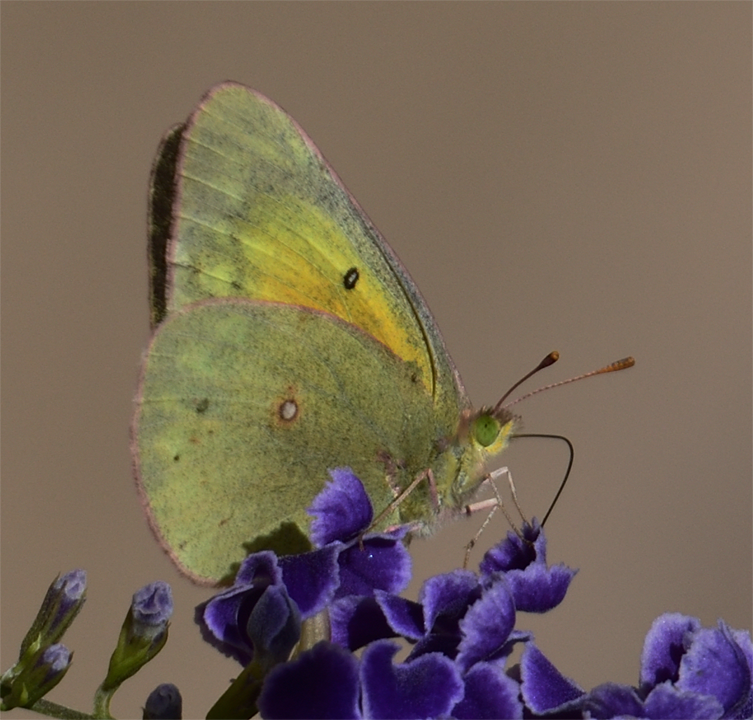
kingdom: Animalia
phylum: Arthropoda
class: Insecta
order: Lepidoptera
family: Pieridae
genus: Colias
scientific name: Colias eurytheme
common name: Alfalfa butterfly
